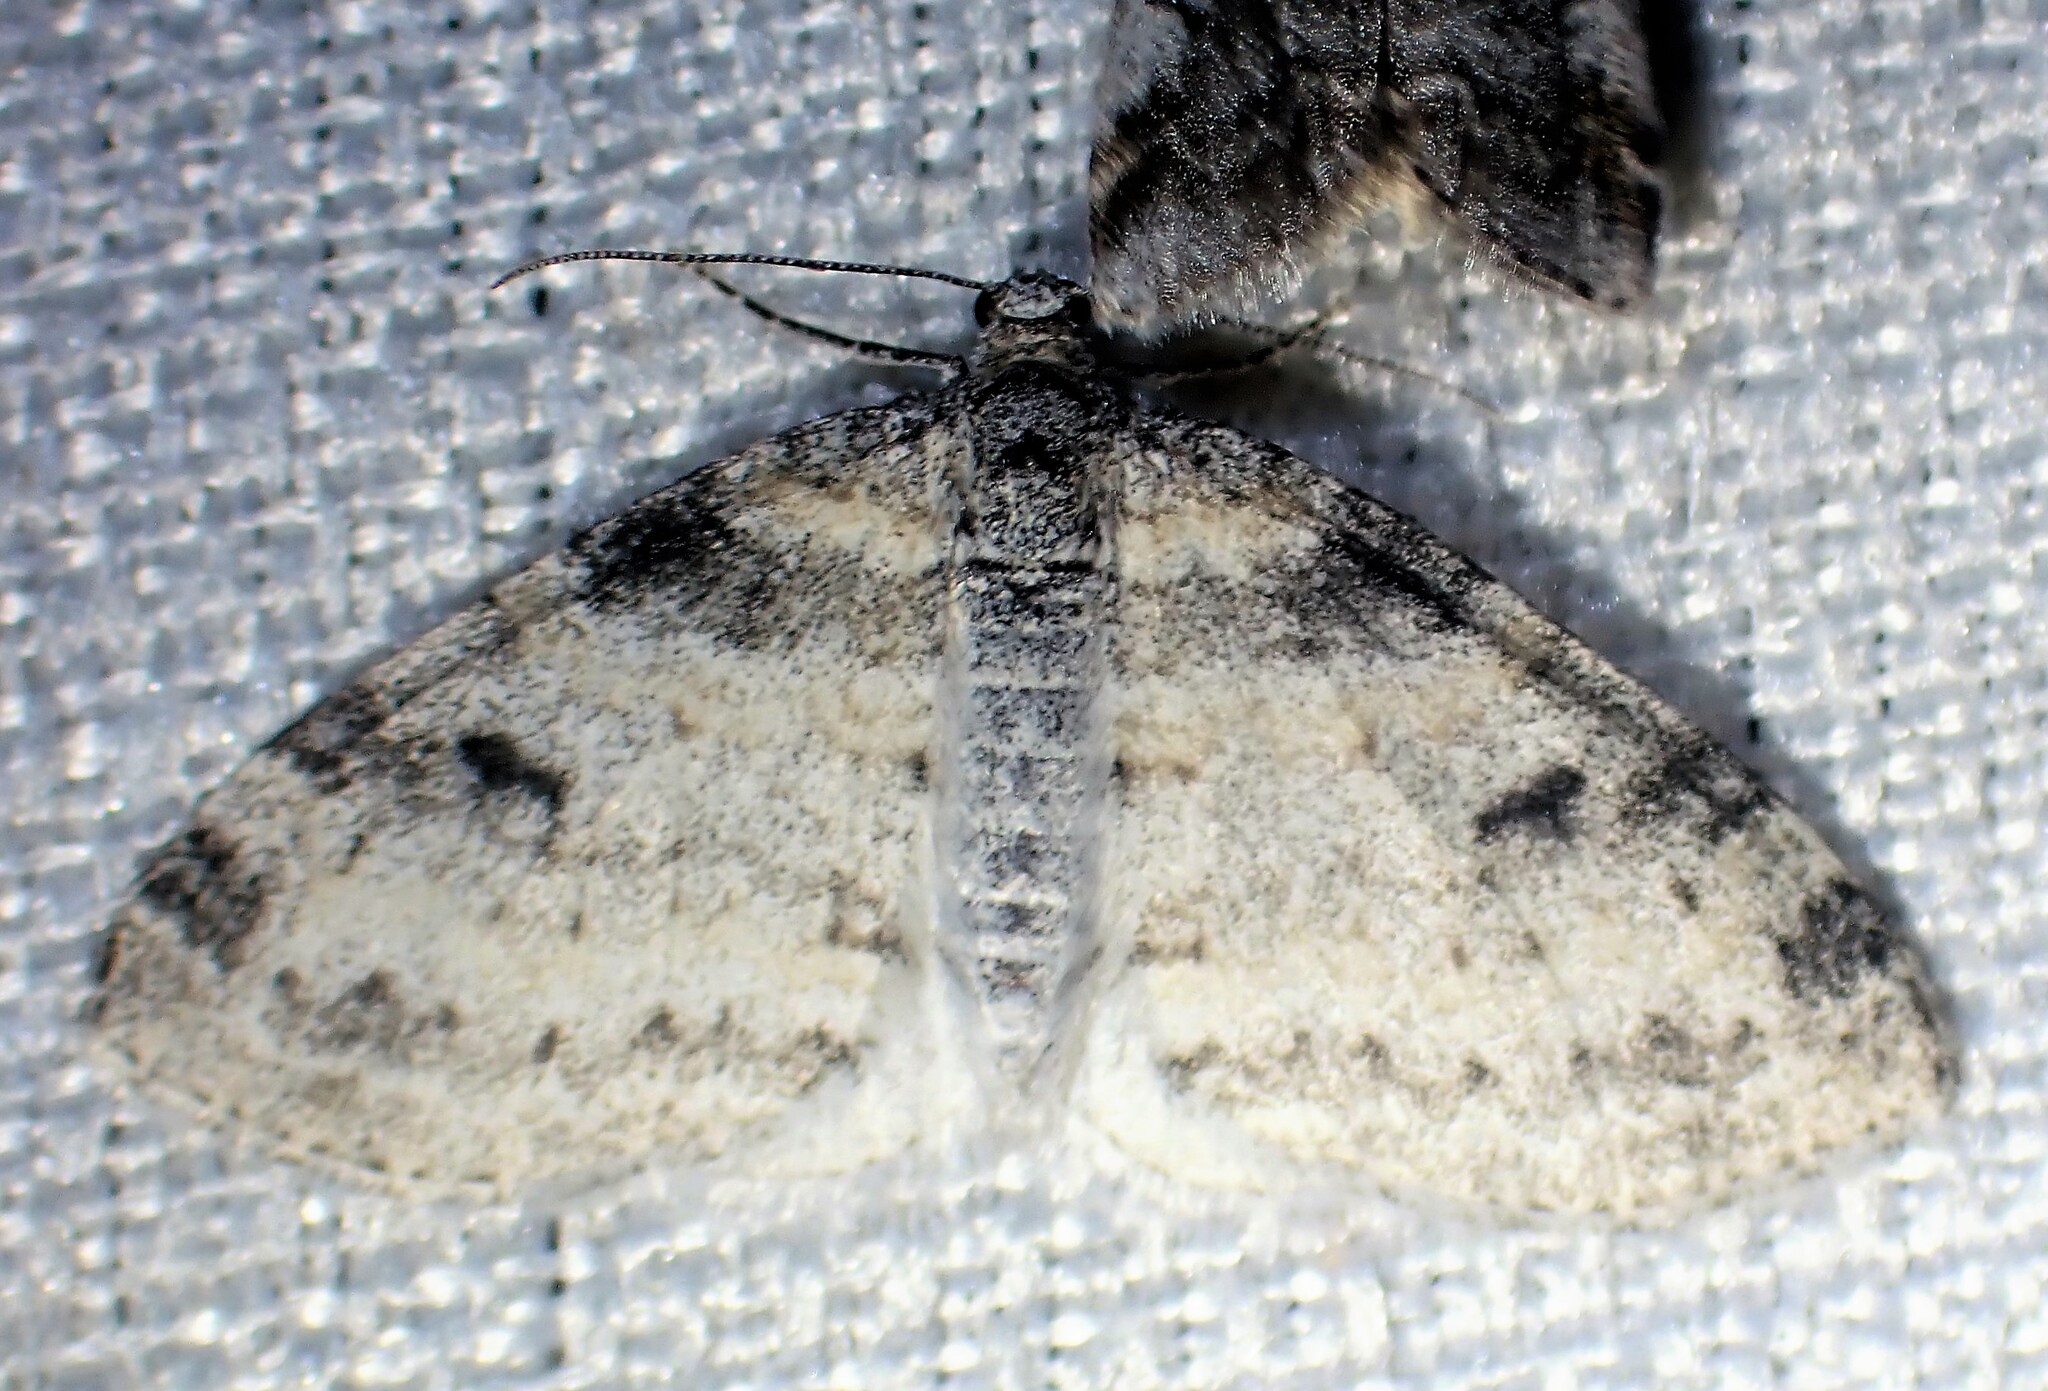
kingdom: Animalia
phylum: Arthropoda
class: Insecta
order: Lepidoptera
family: Geometridae
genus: Lobophora
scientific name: Lobophora nivigerata
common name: Powdered bigwing
